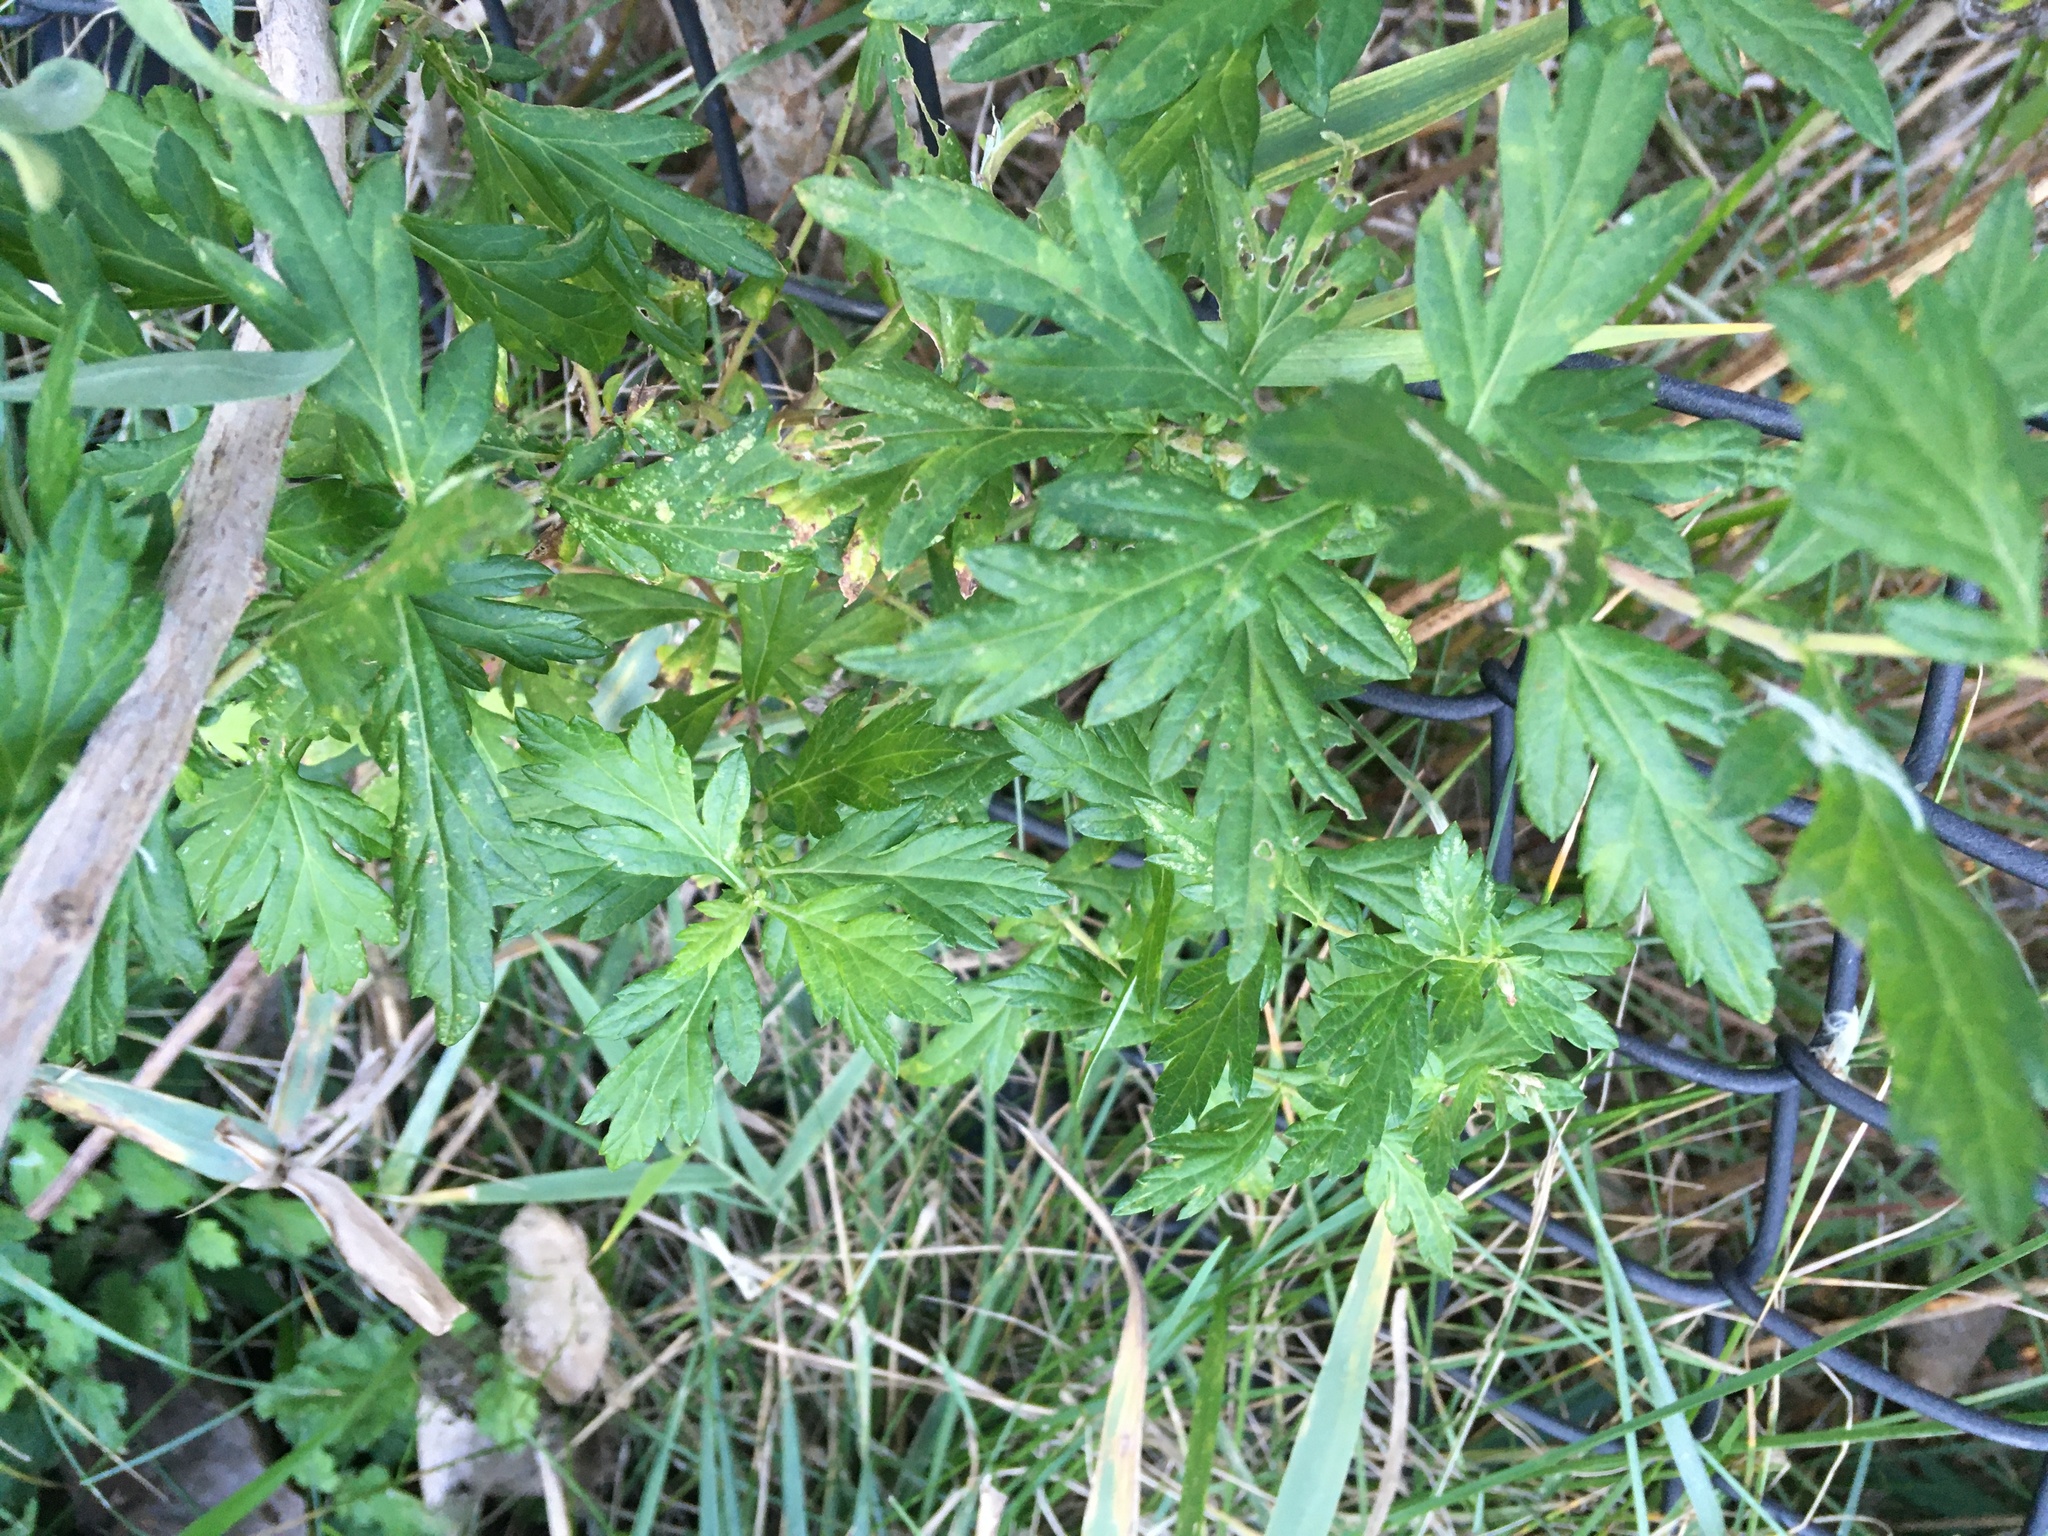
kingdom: Plantae
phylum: Tracheophyta
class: Magnoliopsida
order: Asterales
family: Asteraceae
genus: Artemisia
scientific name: Artemisia vulgaris
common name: Mugwort
